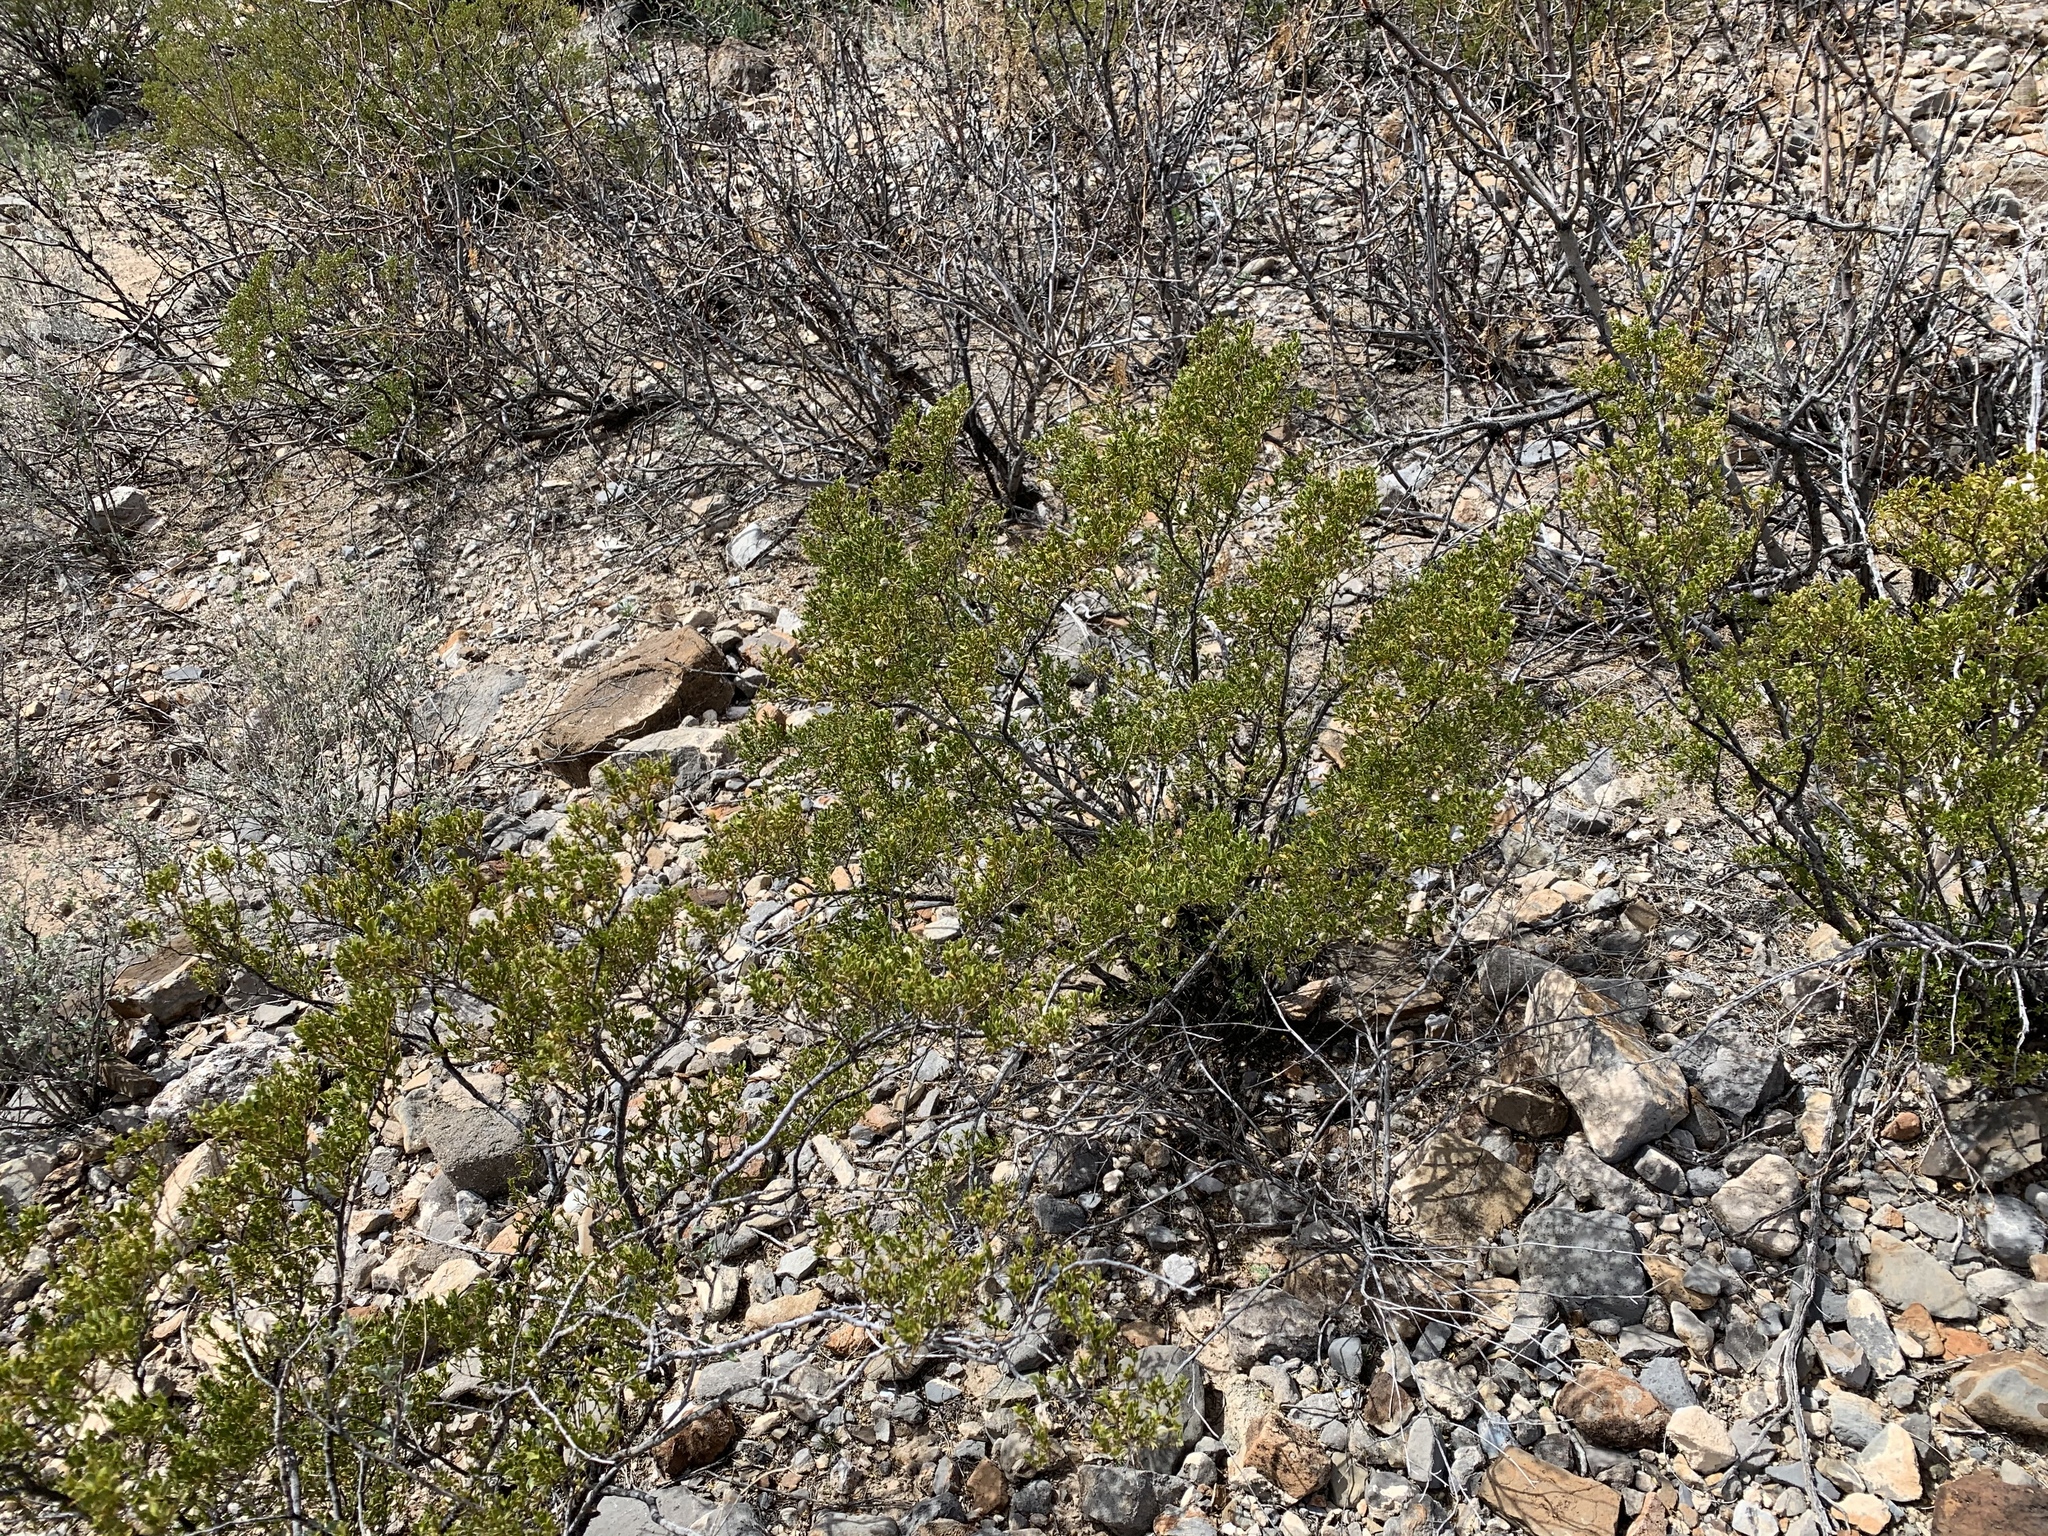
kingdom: Plantae
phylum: Tracheophyta
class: Magnoliopsida
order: Zygophyllales
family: Zygophyllaceae
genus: Larrea
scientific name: Larrea tridentata
